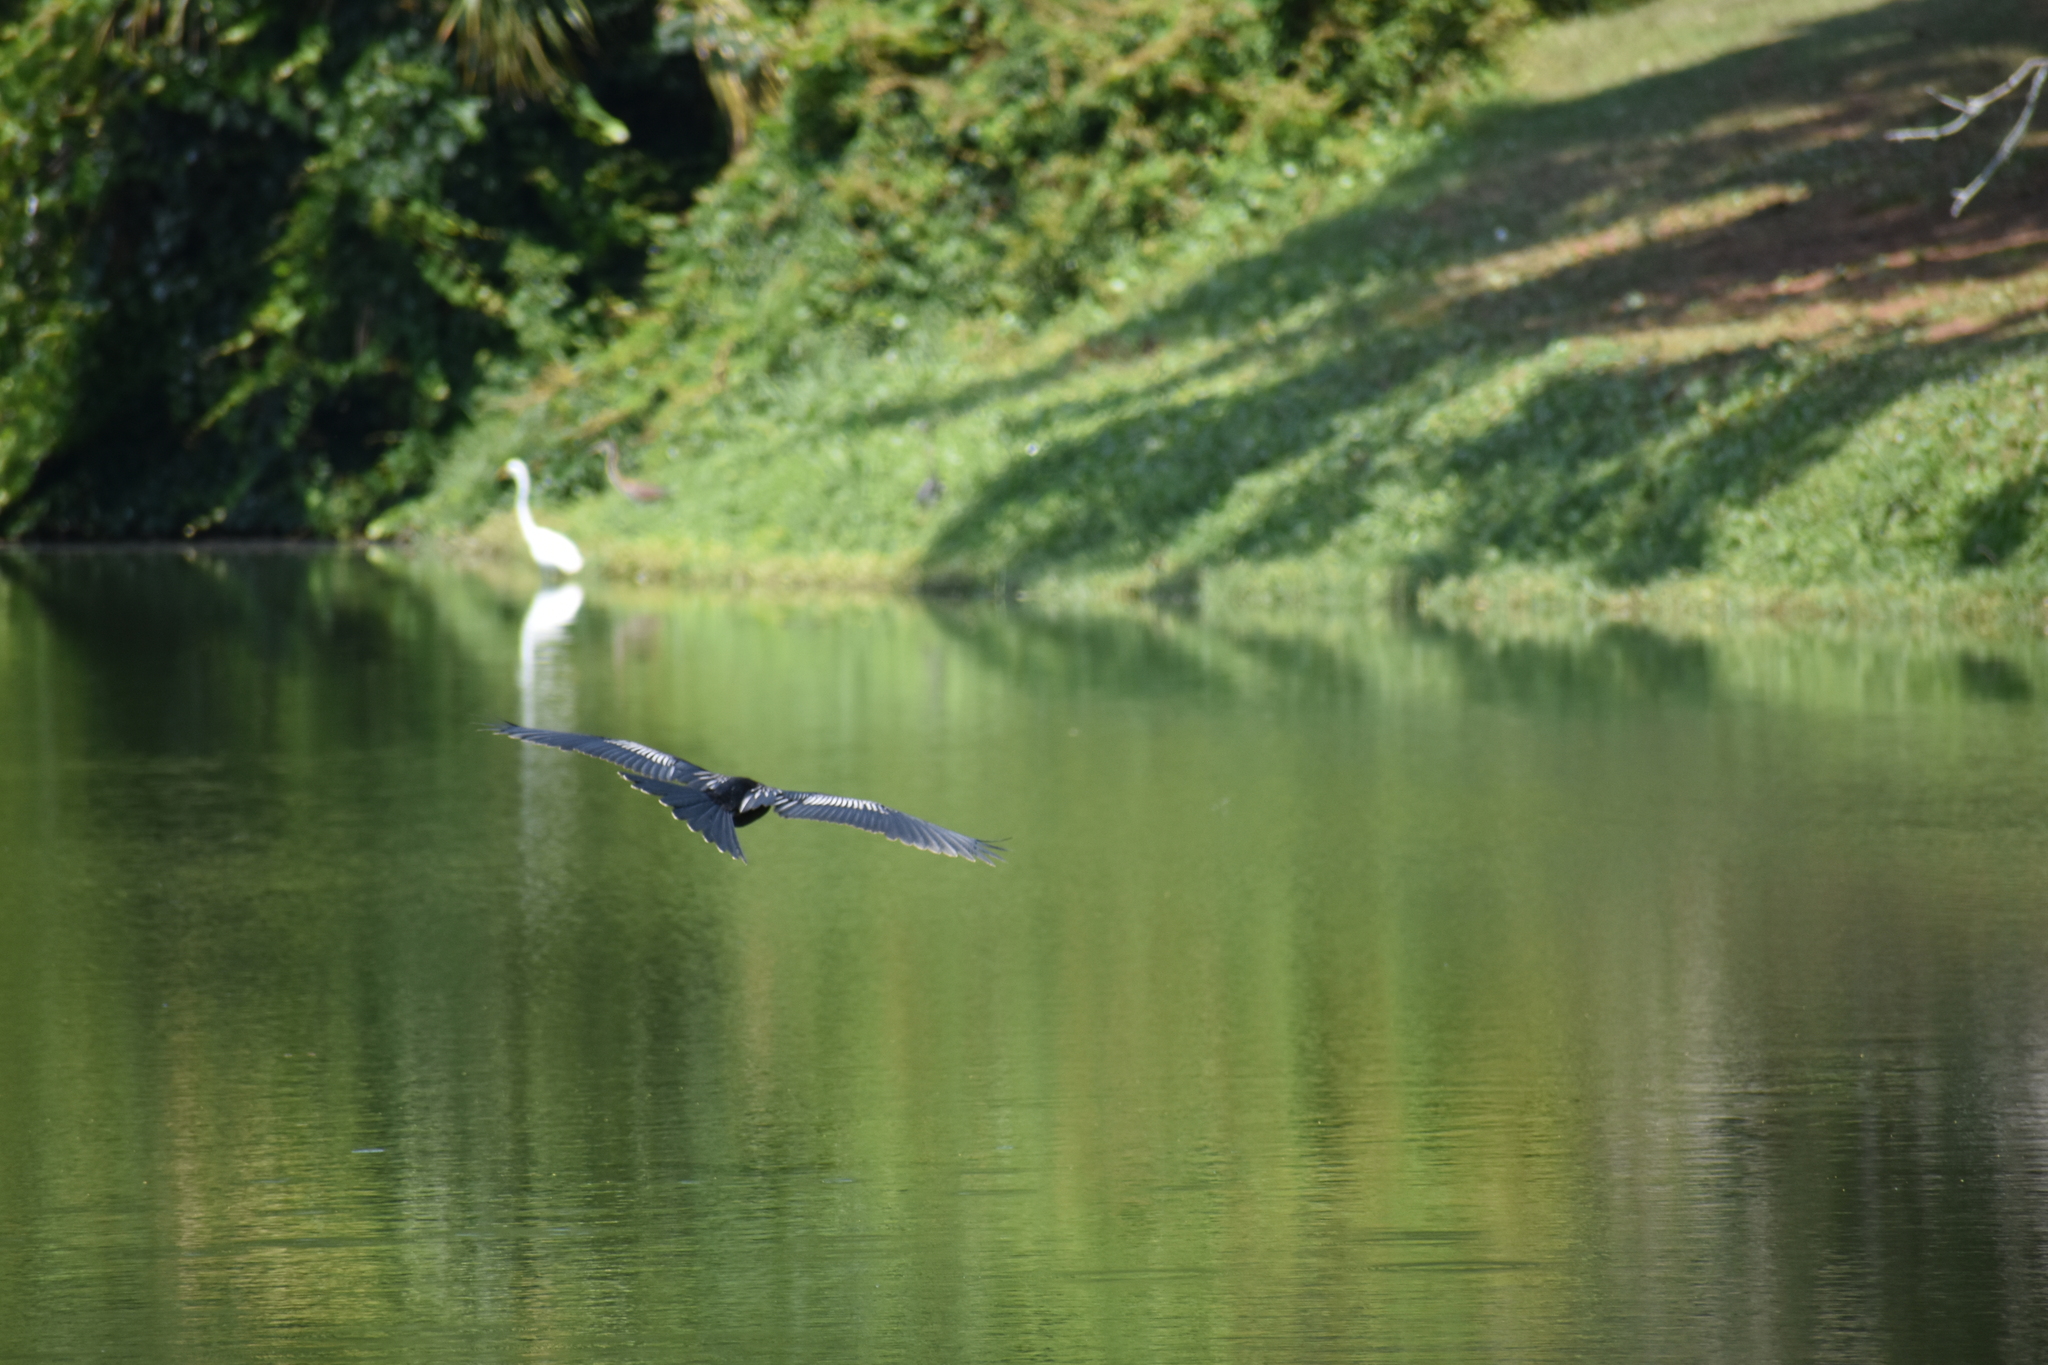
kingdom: Animalia
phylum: Chordata
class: Aves
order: Suliformes
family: Anhingidae
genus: Anhinga
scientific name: Anhinga anhinga
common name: Anhinga
